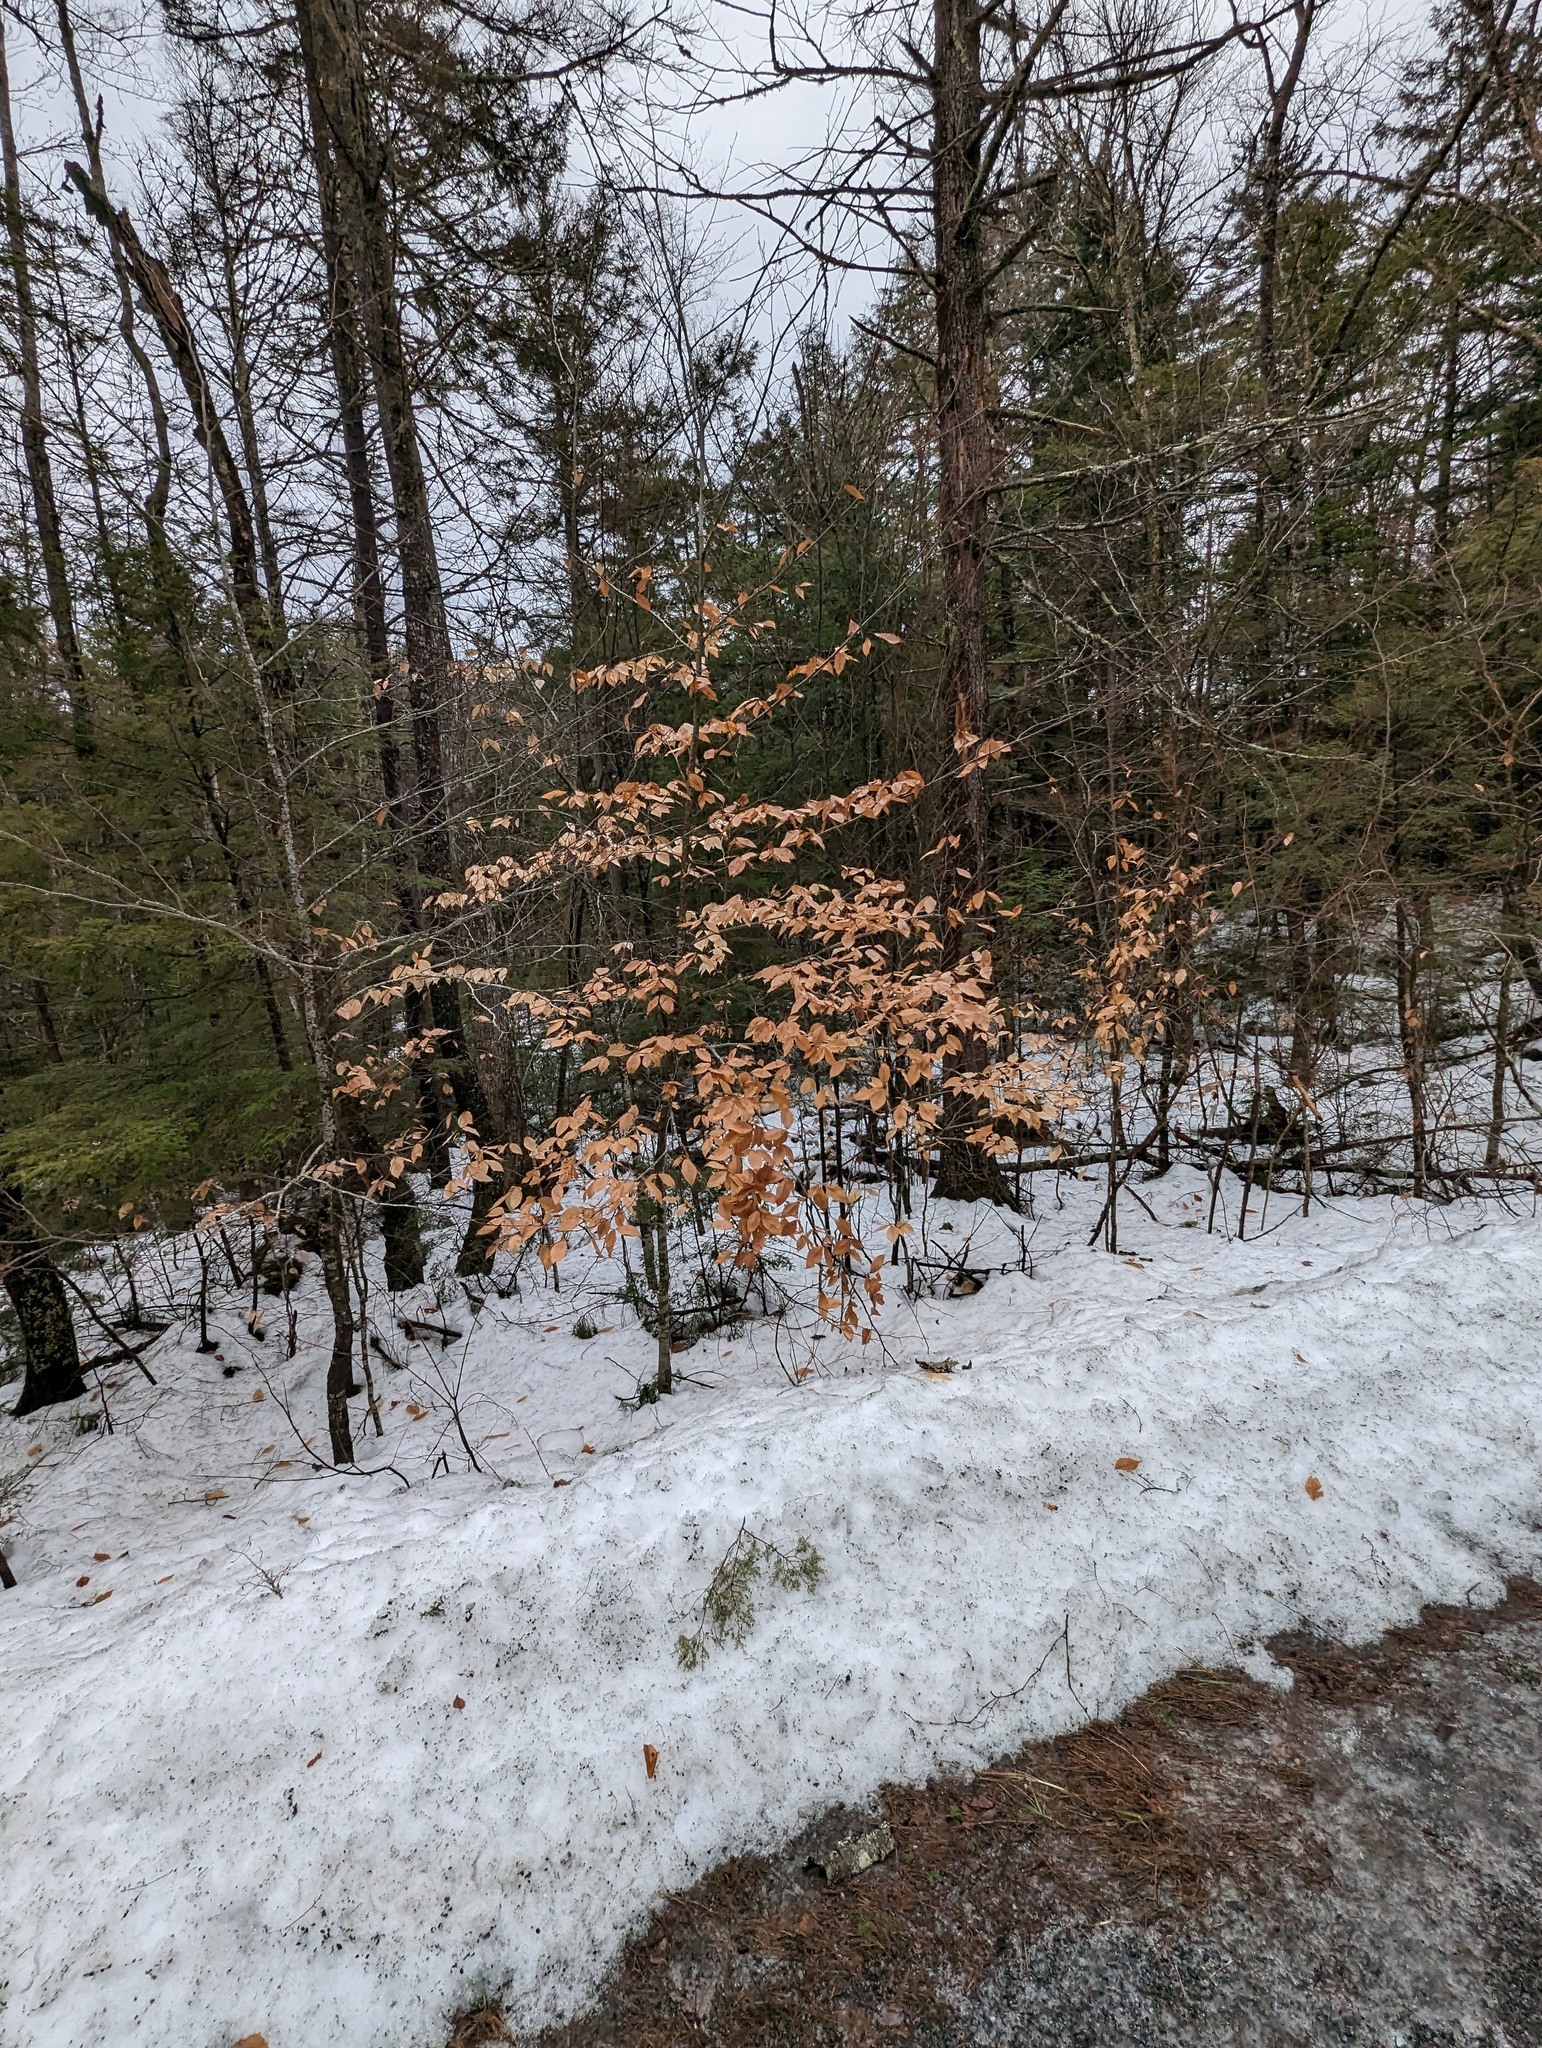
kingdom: Plantae
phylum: Tracheophyta
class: Magnoliopsida
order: Fagales
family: Fagaceae
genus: Fagus
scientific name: Fagus grandifolia
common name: American beech
